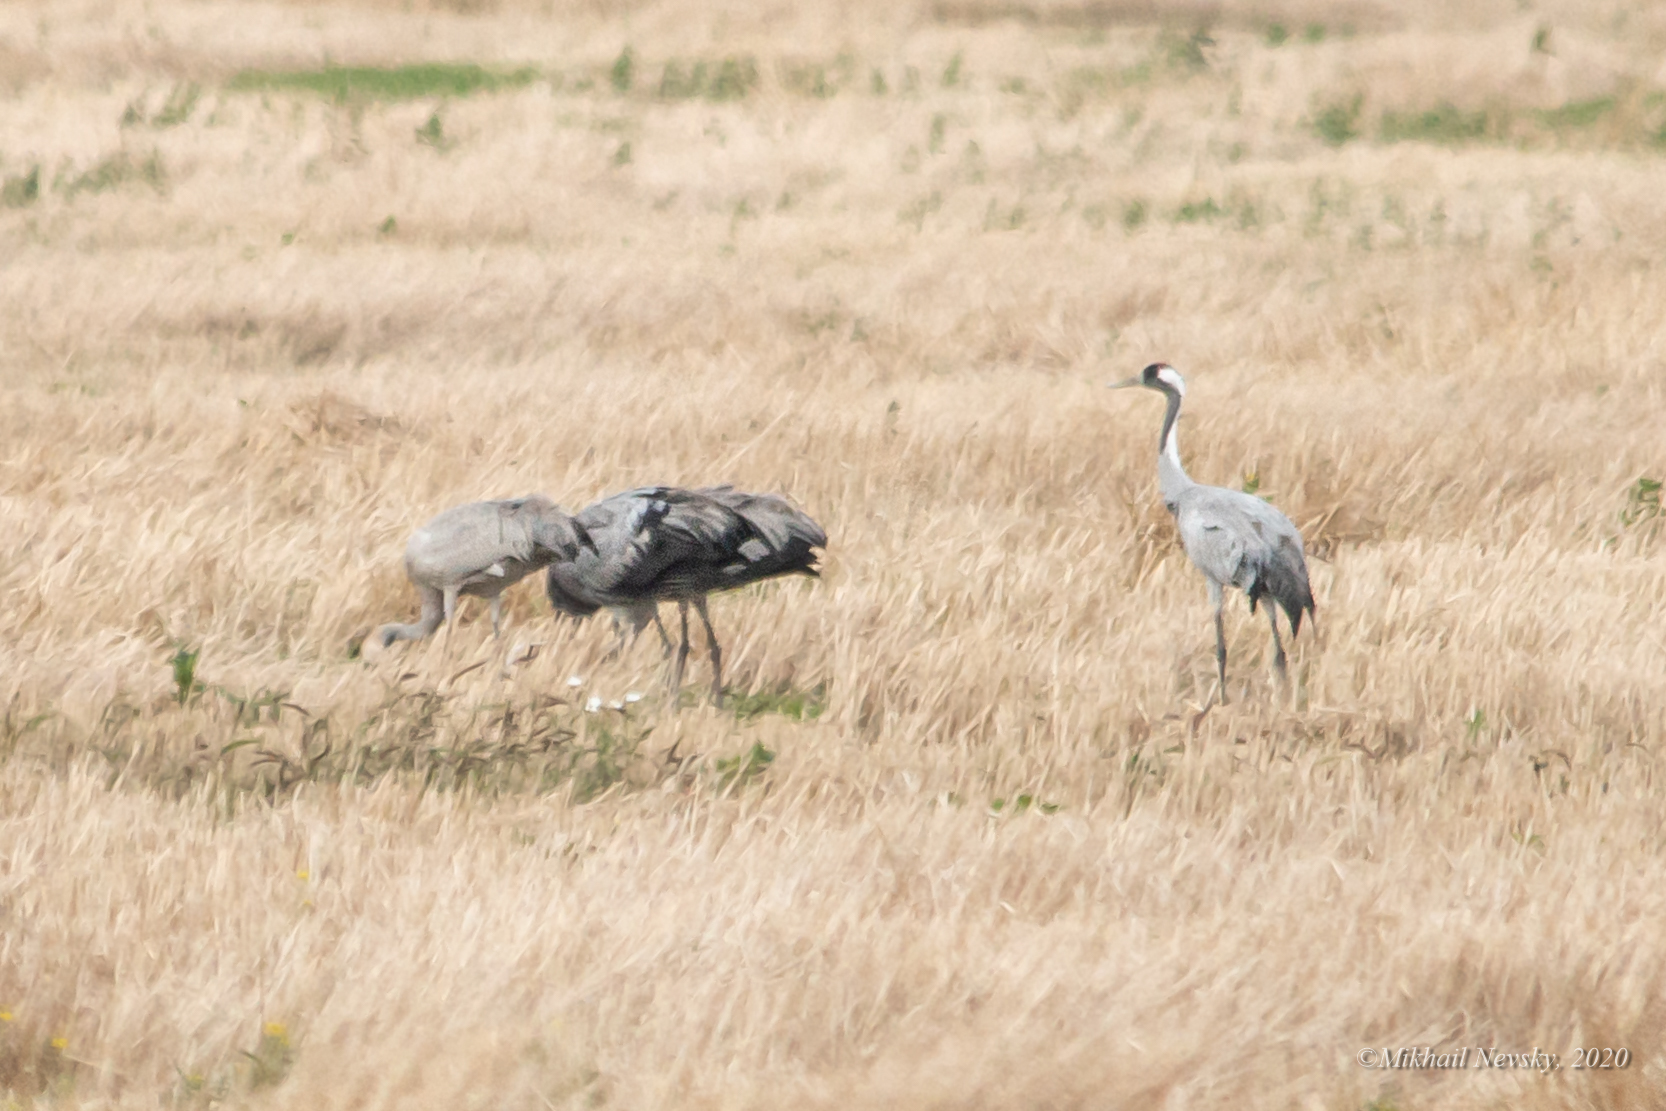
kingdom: Animalia
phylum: Chordata
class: Aves
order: Gruiformes
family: Gruidae
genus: Grus
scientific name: Grus grus
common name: Common crane
